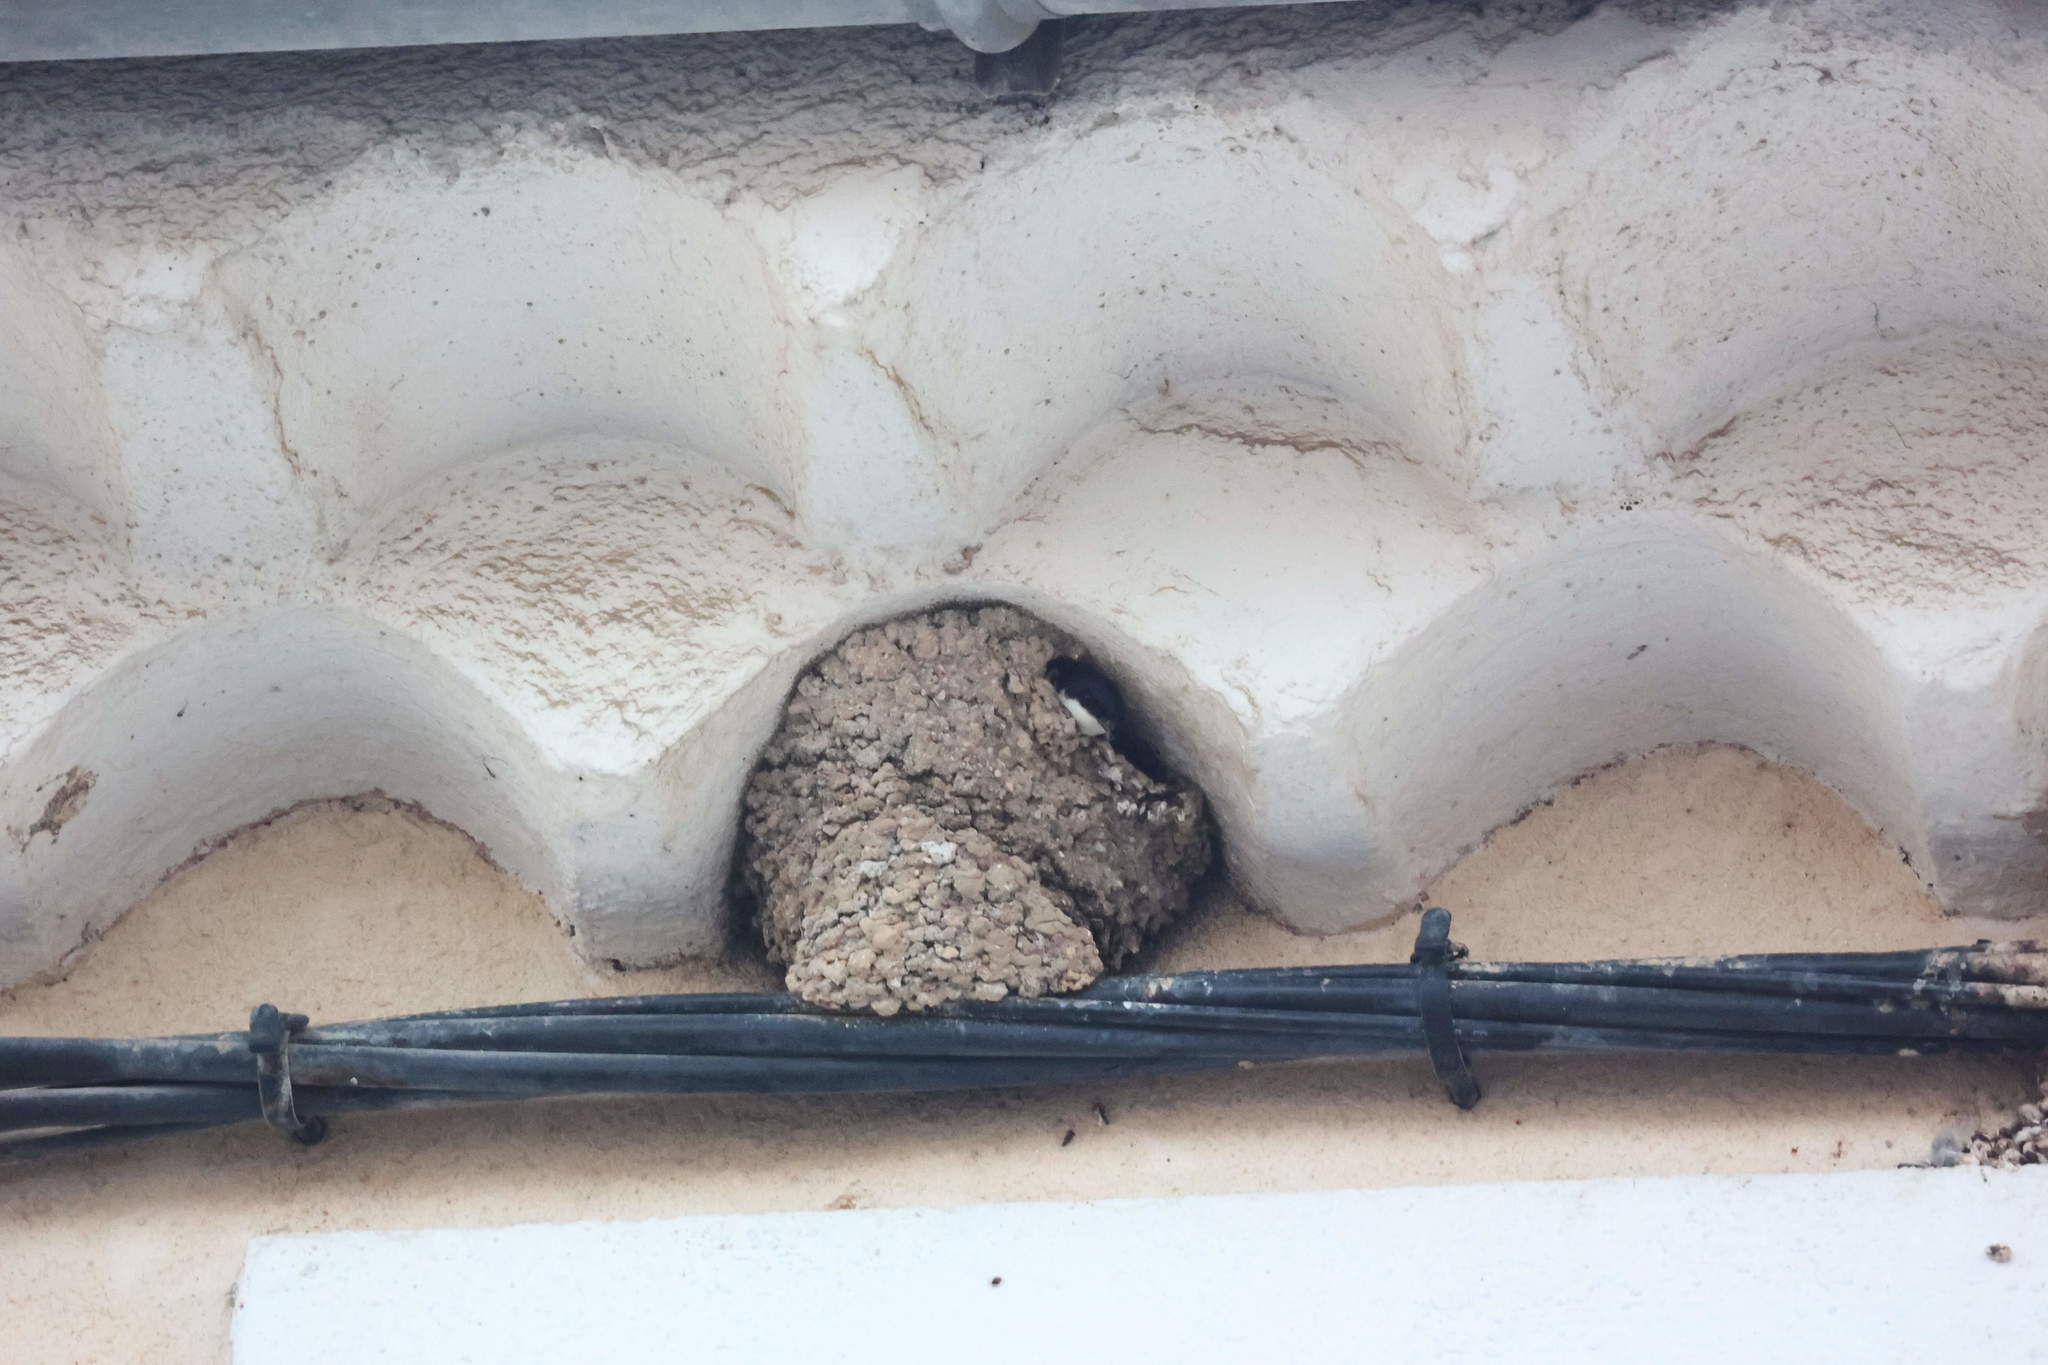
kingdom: Animalia
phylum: Chordata
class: Aves
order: Passeriformes
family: Hirundinidae
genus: Delichon
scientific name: Delichon urbicum
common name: Common house martin
